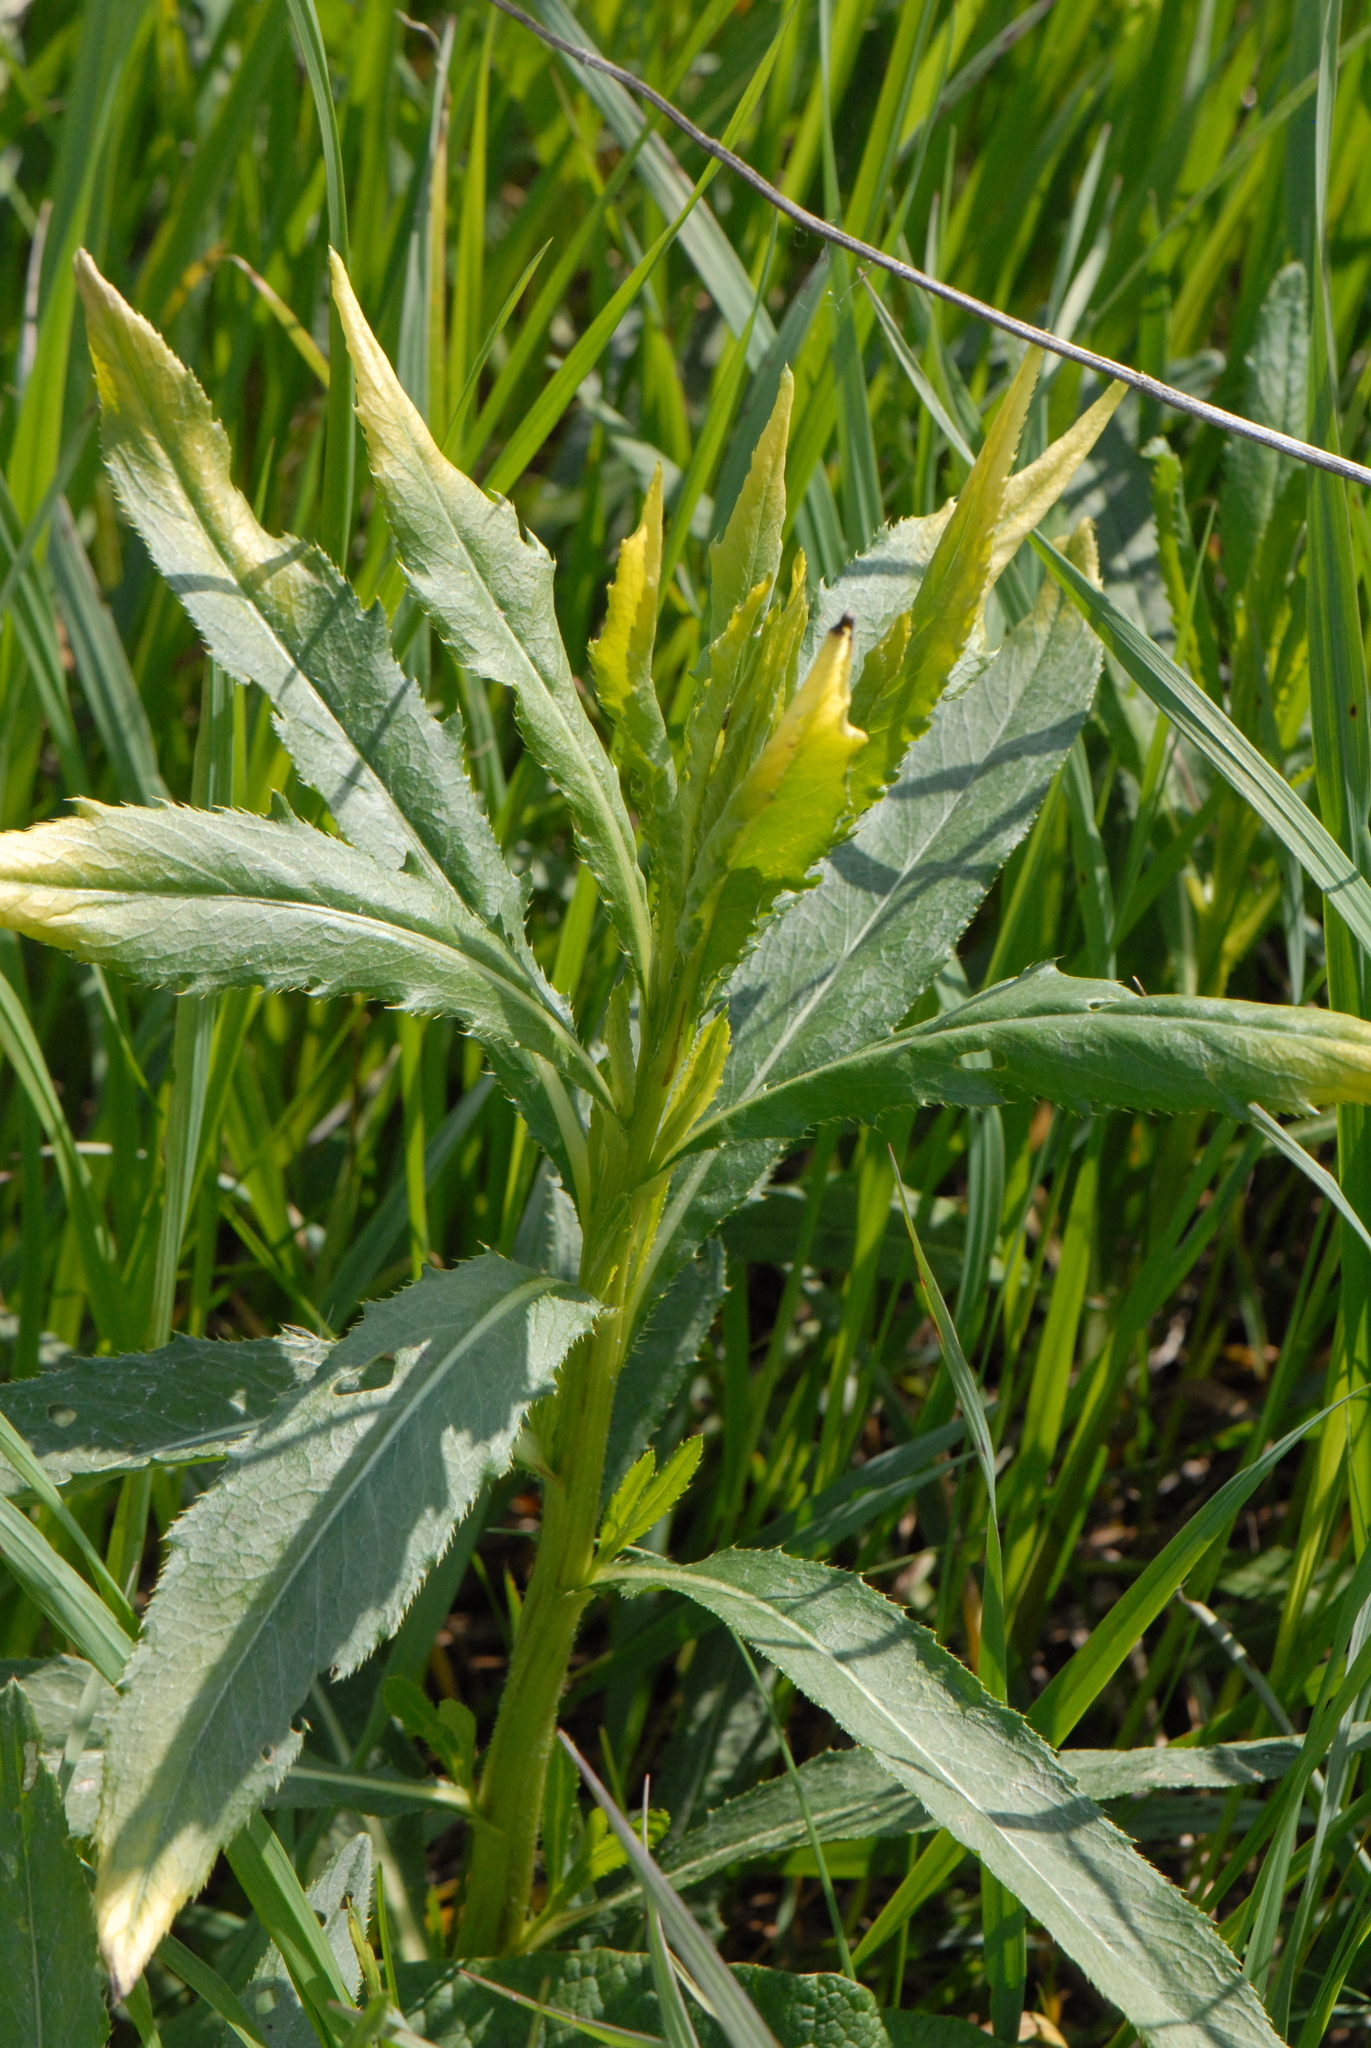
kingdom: Plantae
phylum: Tracheophyta
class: Magnoliopsida
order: Asterales
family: Asteraceae
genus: Cirsium
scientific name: Cirsium arvense
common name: Creeping thistle
